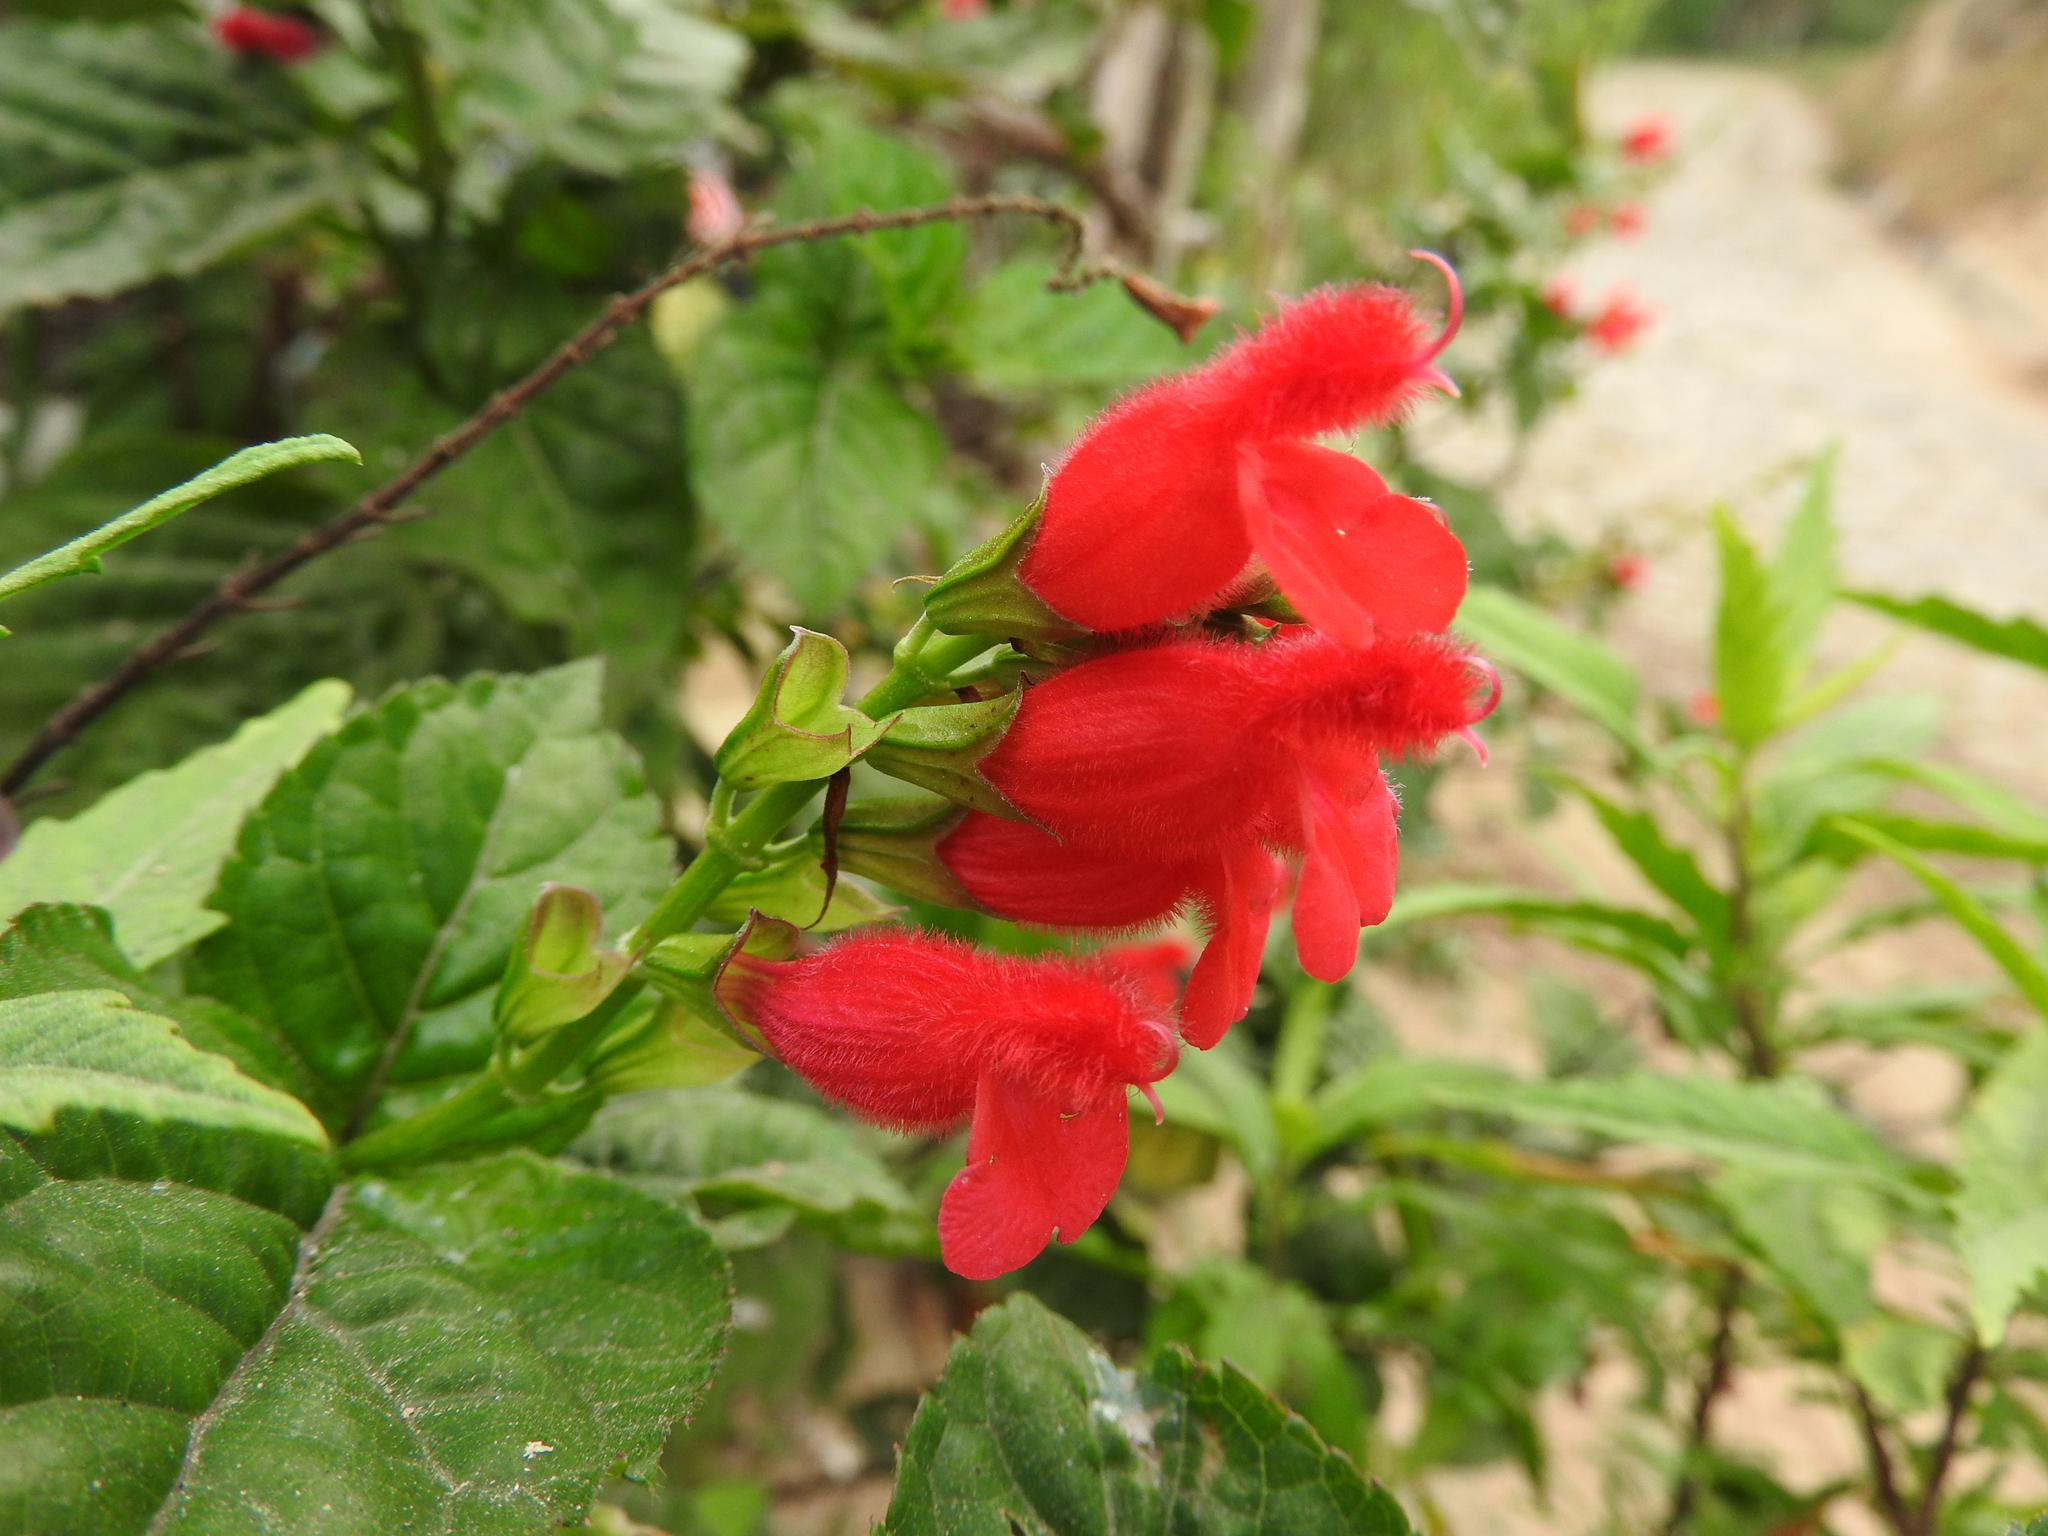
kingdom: Plantae
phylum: Tracheophyta
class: Magnoliopsida
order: Lamiales
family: Lamiaceae
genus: Salvia
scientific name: Salvia miniata
